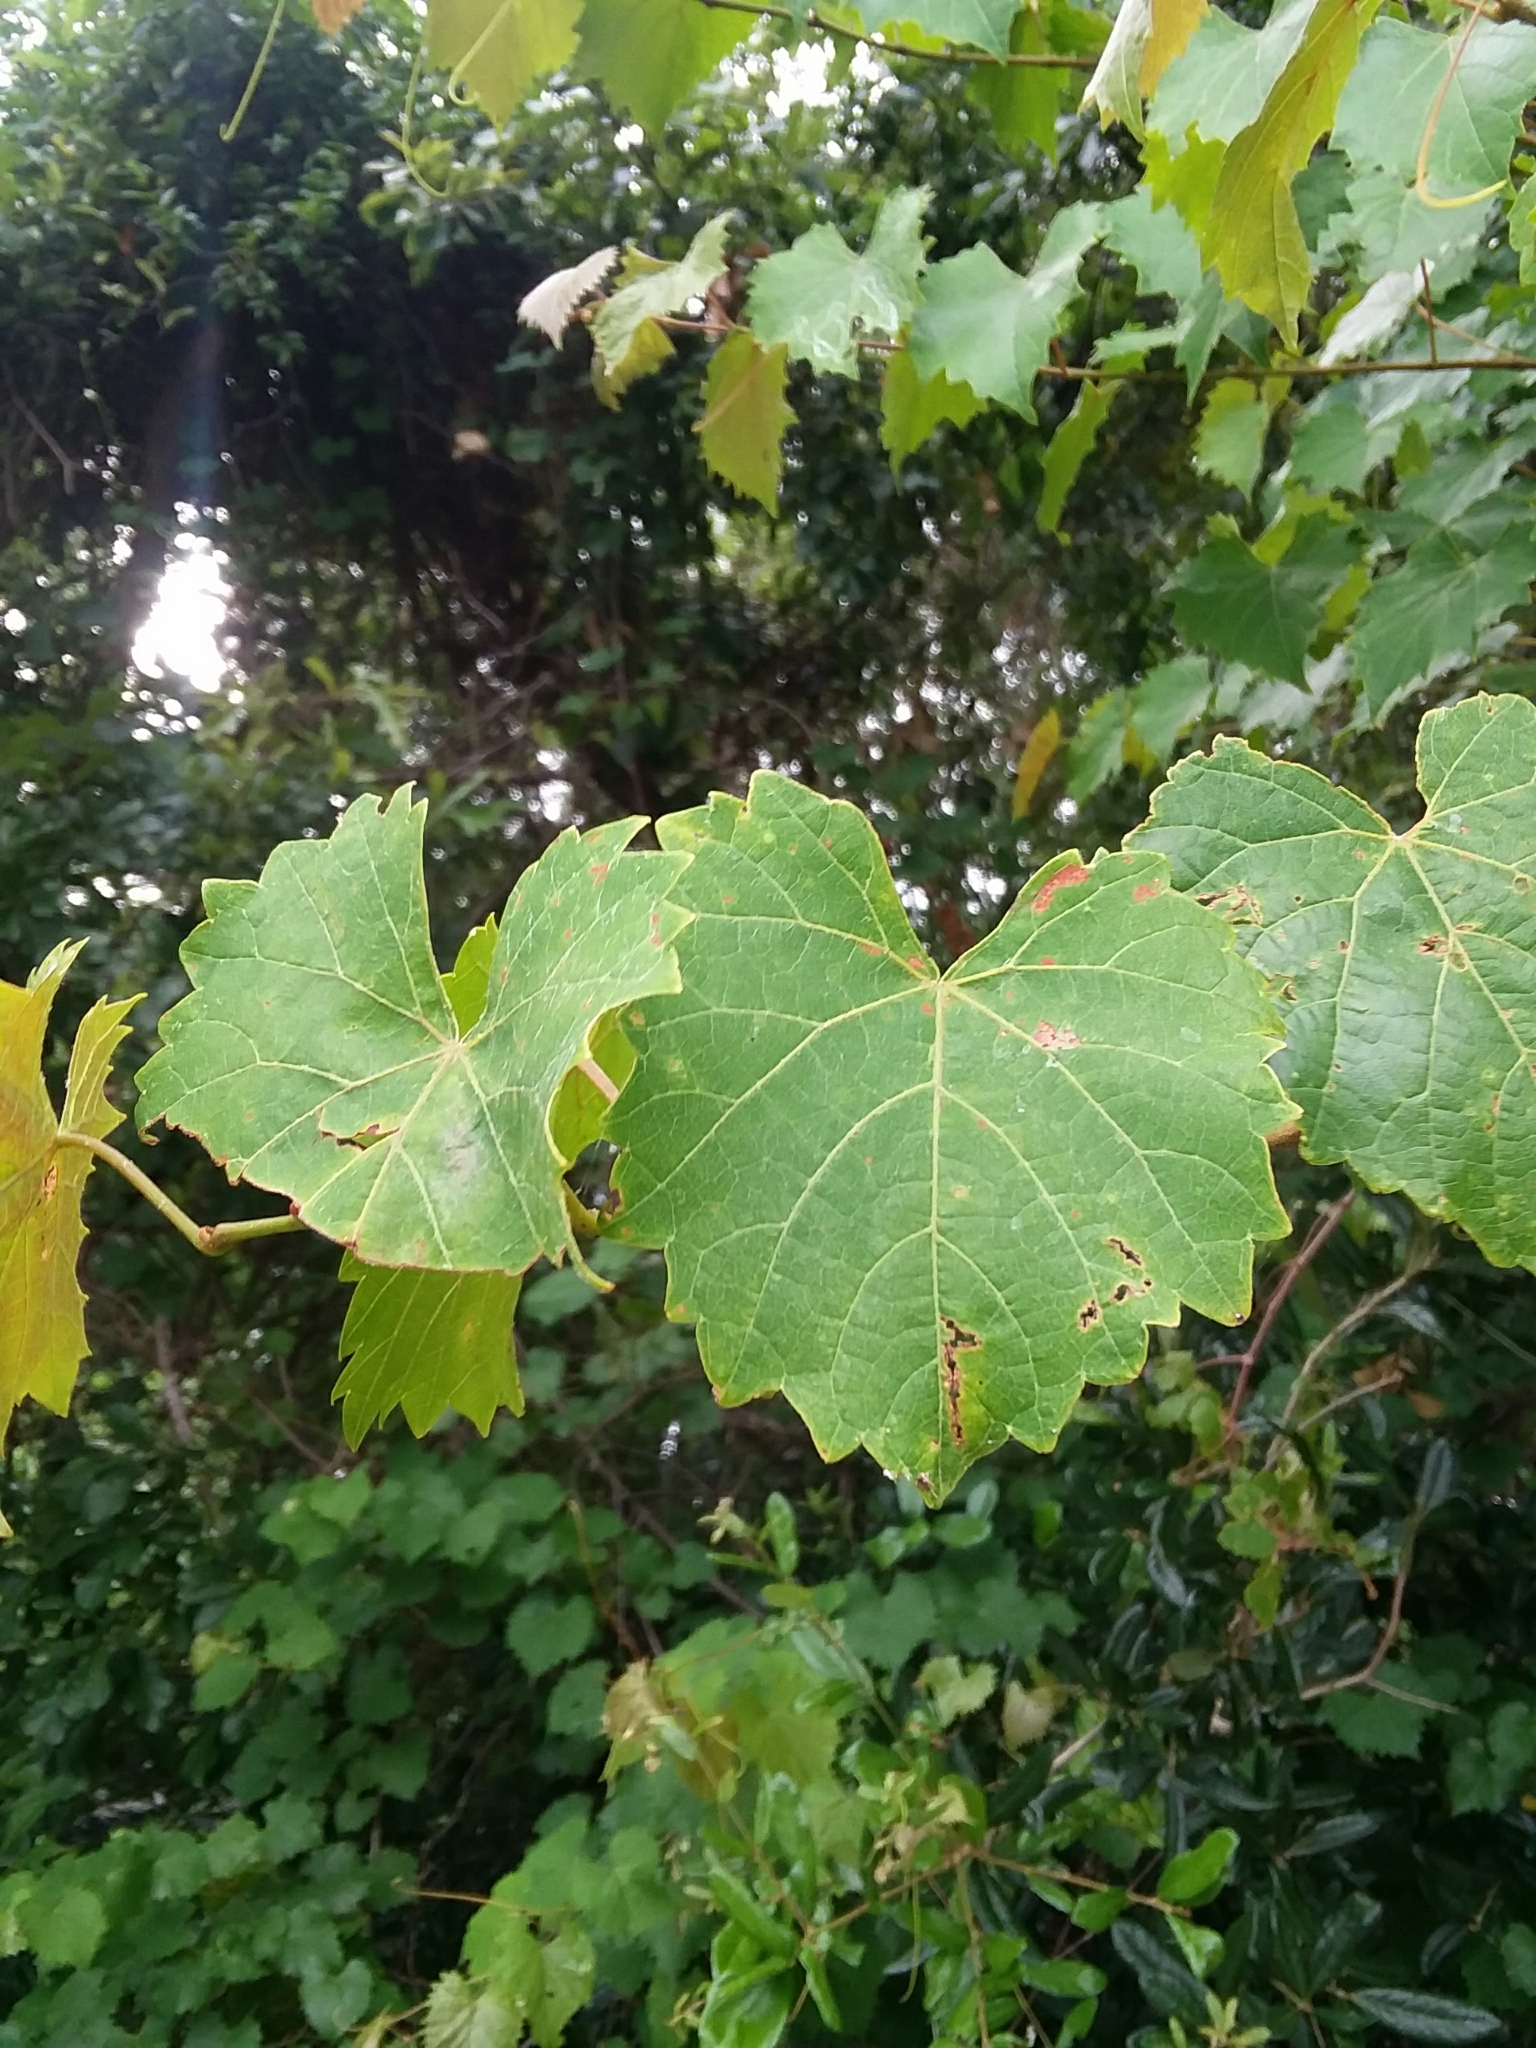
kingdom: Plantae
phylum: Tracheophyta
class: Magnoliopsida
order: Vitales
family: Vitaceae
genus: Vitis
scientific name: Vitis rotundifolia
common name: Muscadine grape
